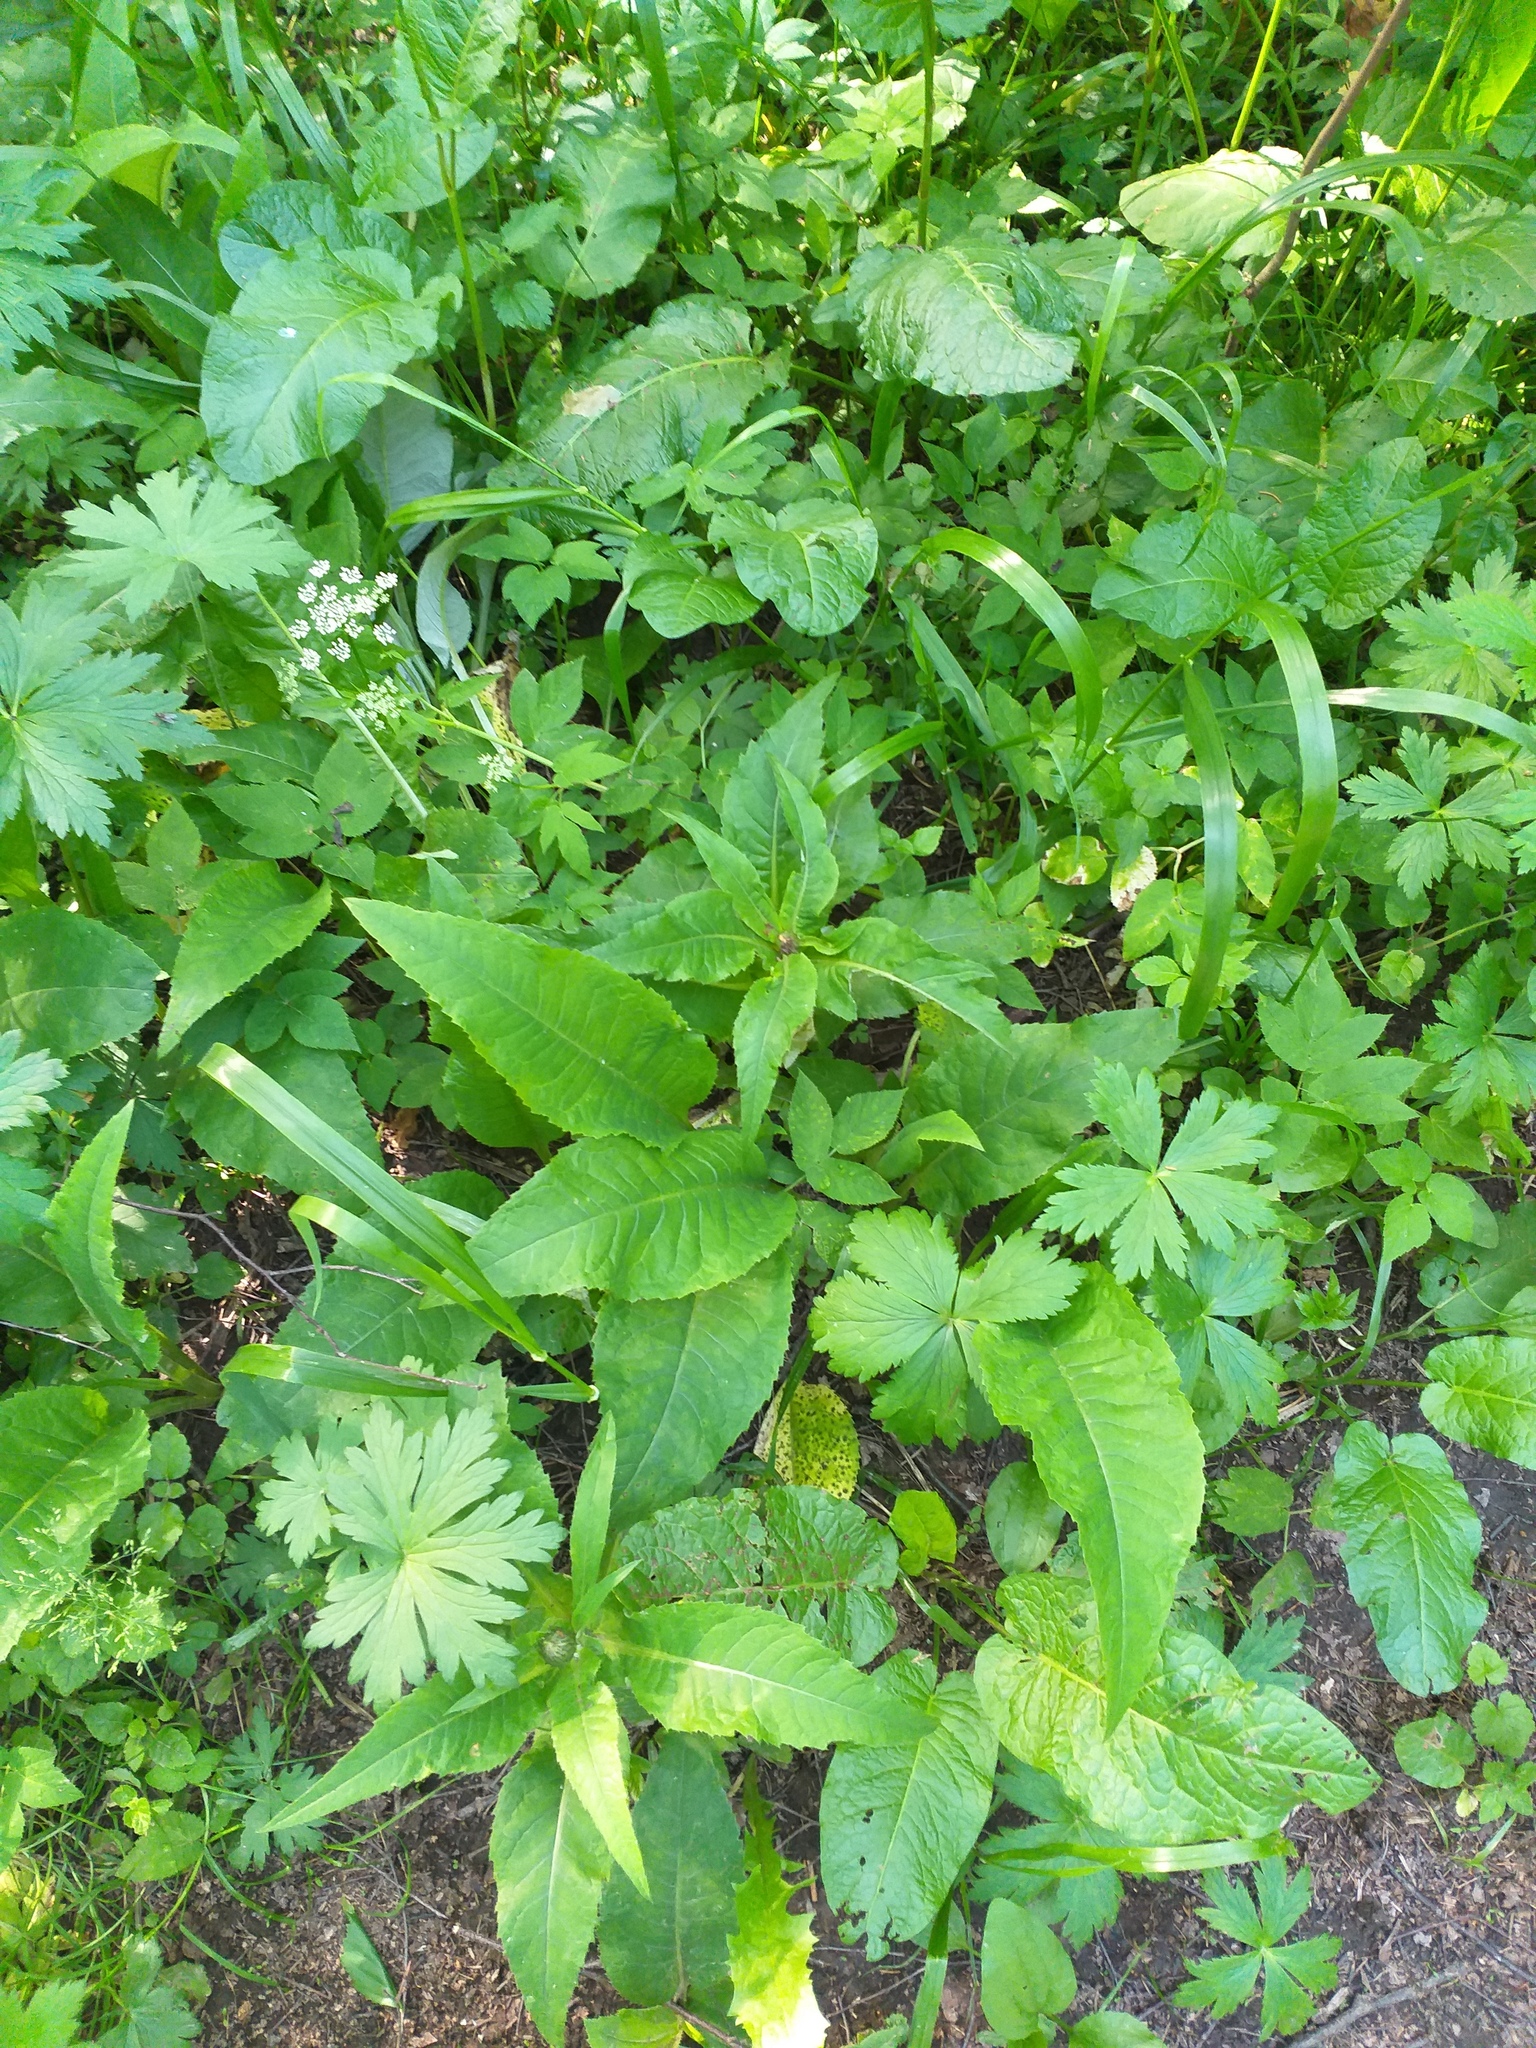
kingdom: Plantae
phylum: Tracheophyta
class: Magnoliopsida
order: Asterales
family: Asteraceae
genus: Cirsium
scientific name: Cirsium heterophyllum
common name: Melancholy thistle
